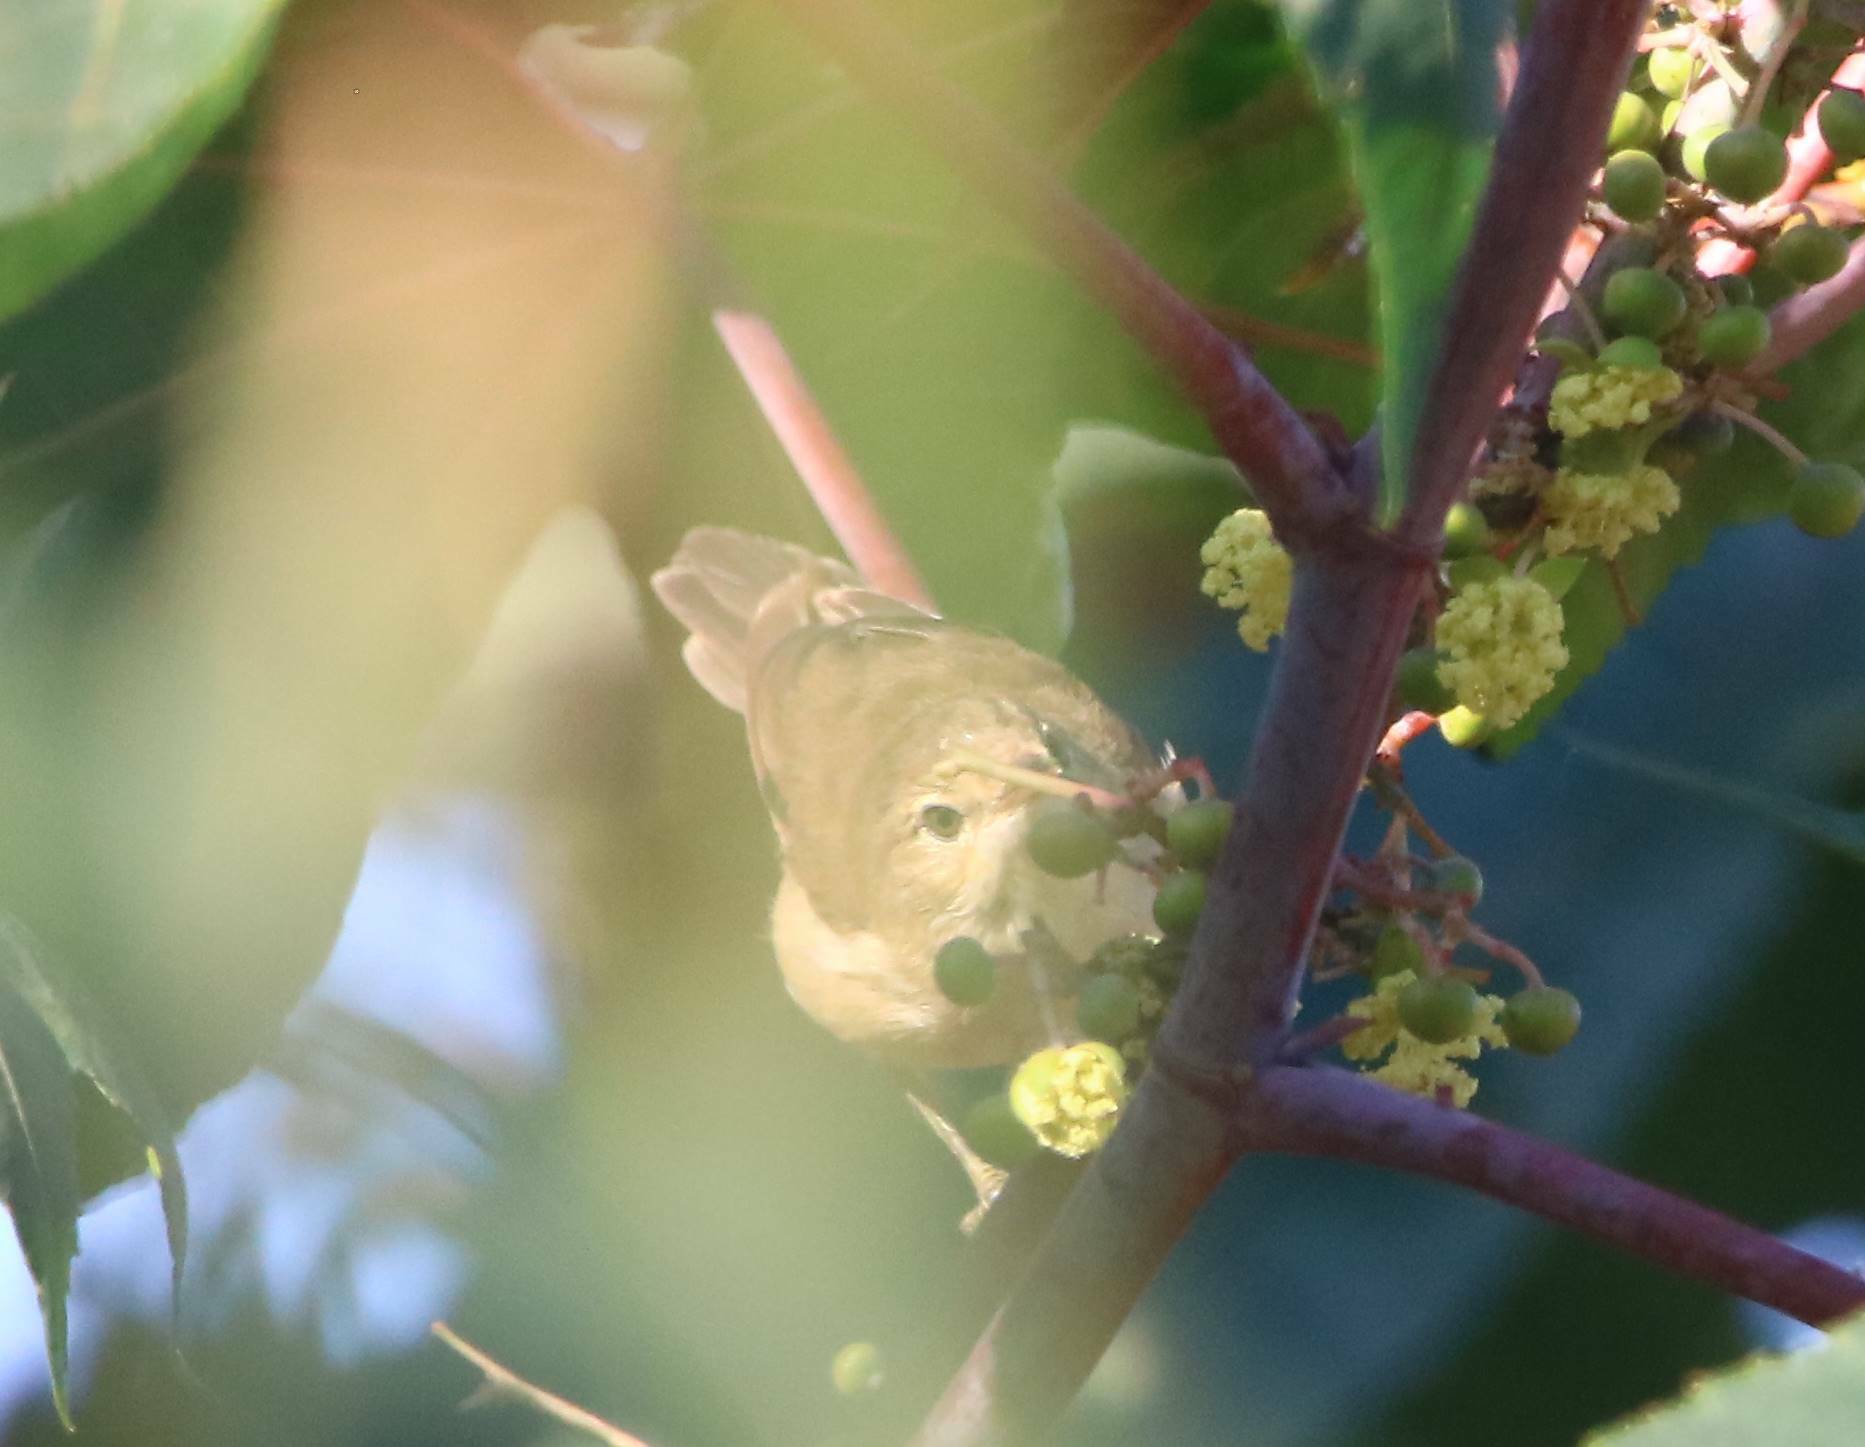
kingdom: Animalia
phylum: Chordata
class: Aves
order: Passeriformes
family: Acrocephalidae
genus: Acrocephalus
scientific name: Acrocephalus scirpaceus
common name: Eurasian reed warbler
